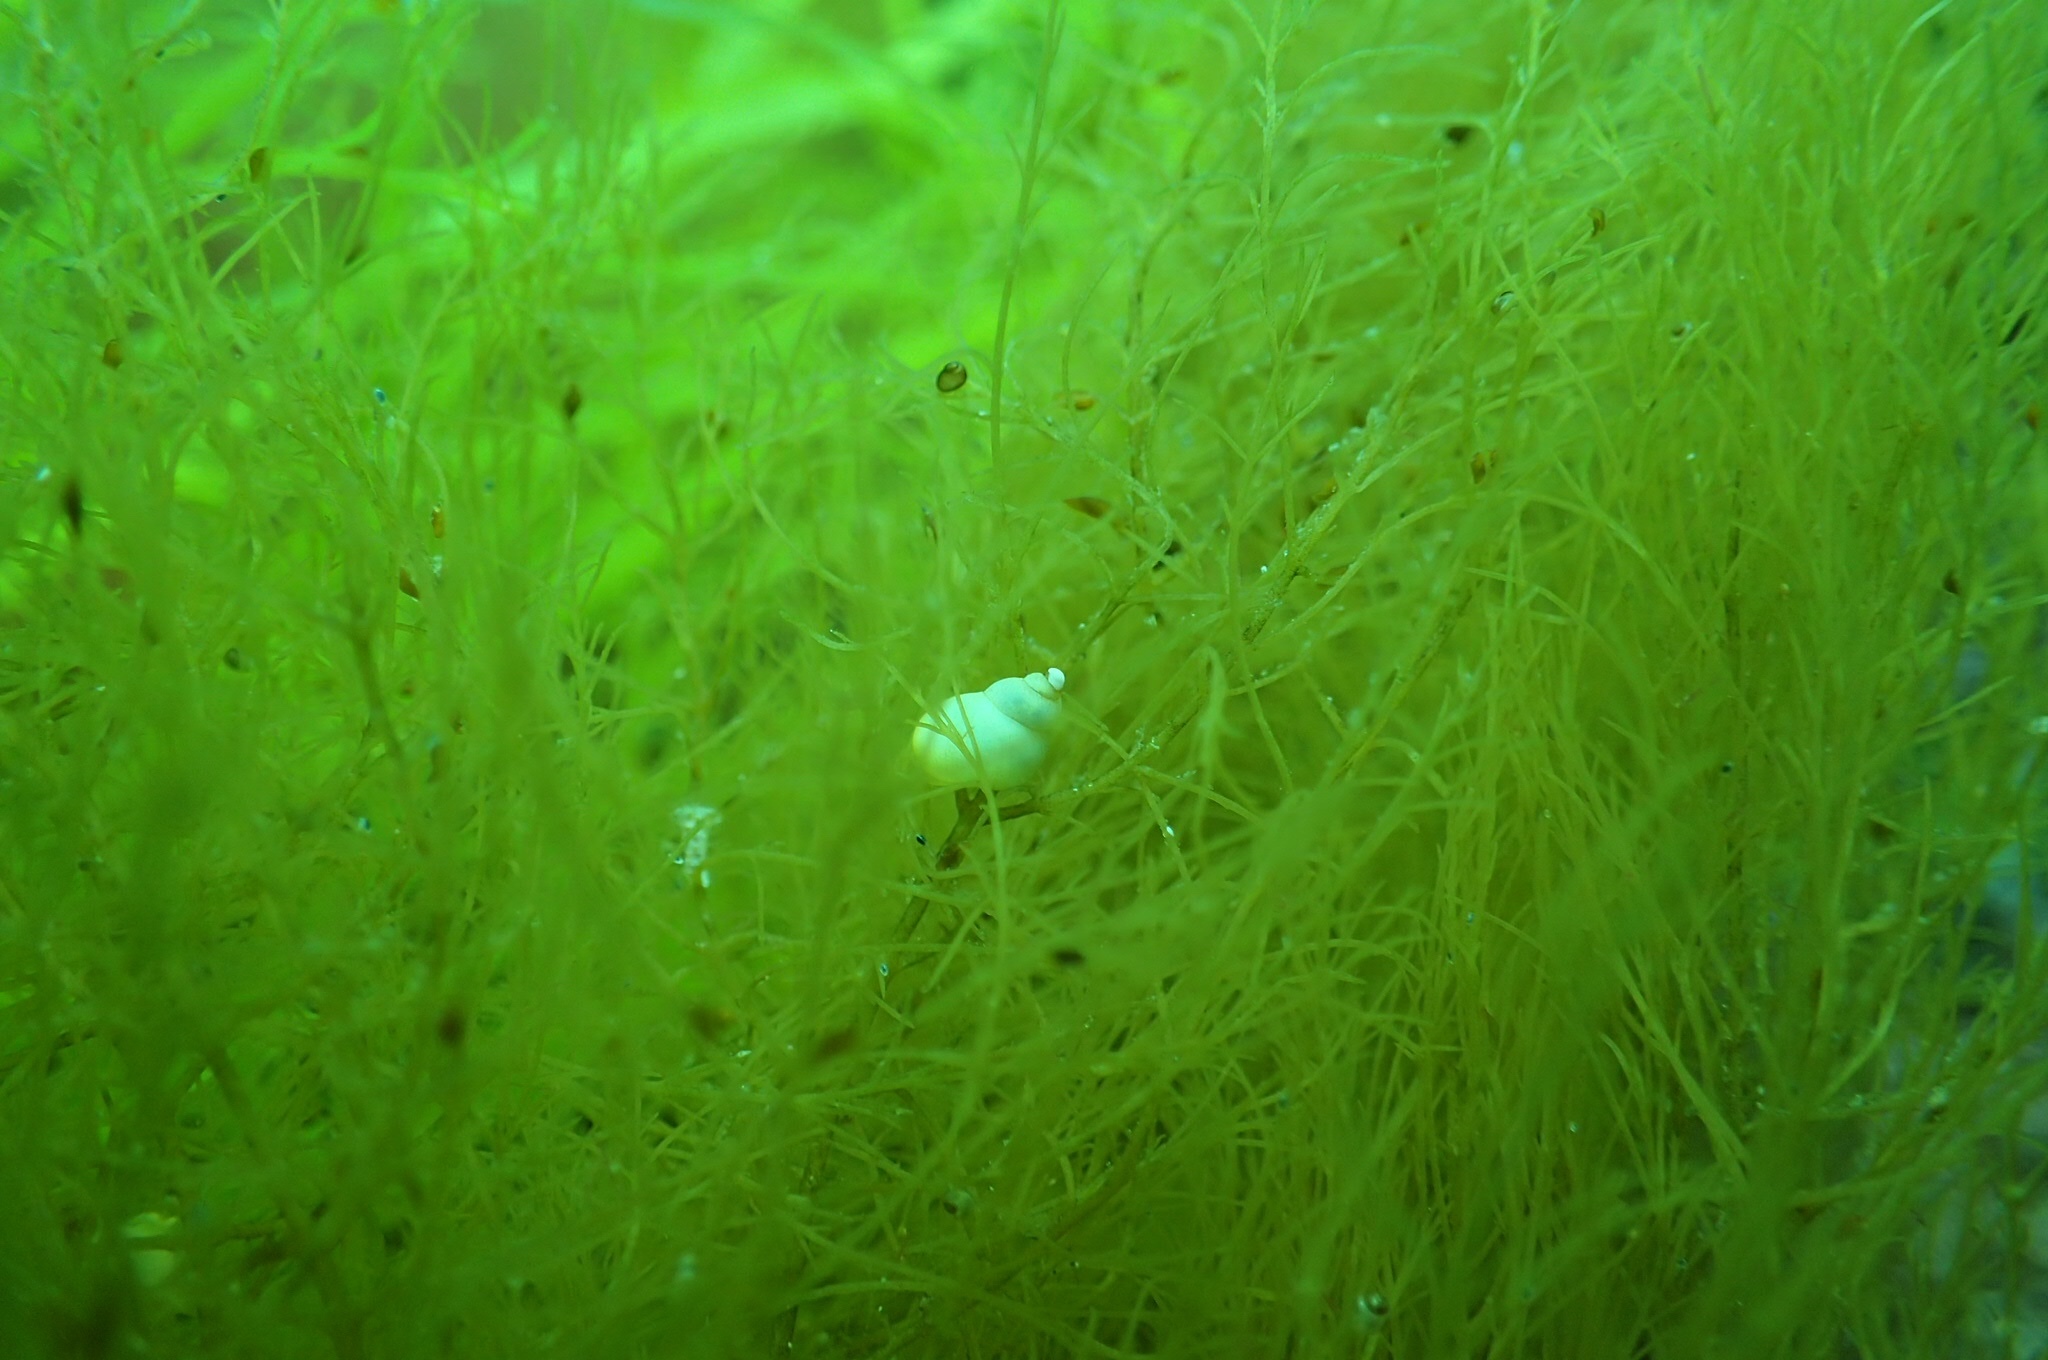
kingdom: Animalia
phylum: Mollusca
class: Gastropoda
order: Littorinimorpha
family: Littorinidae
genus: Lacuna
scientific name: Lacuna vincta
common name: Banded chink shell
